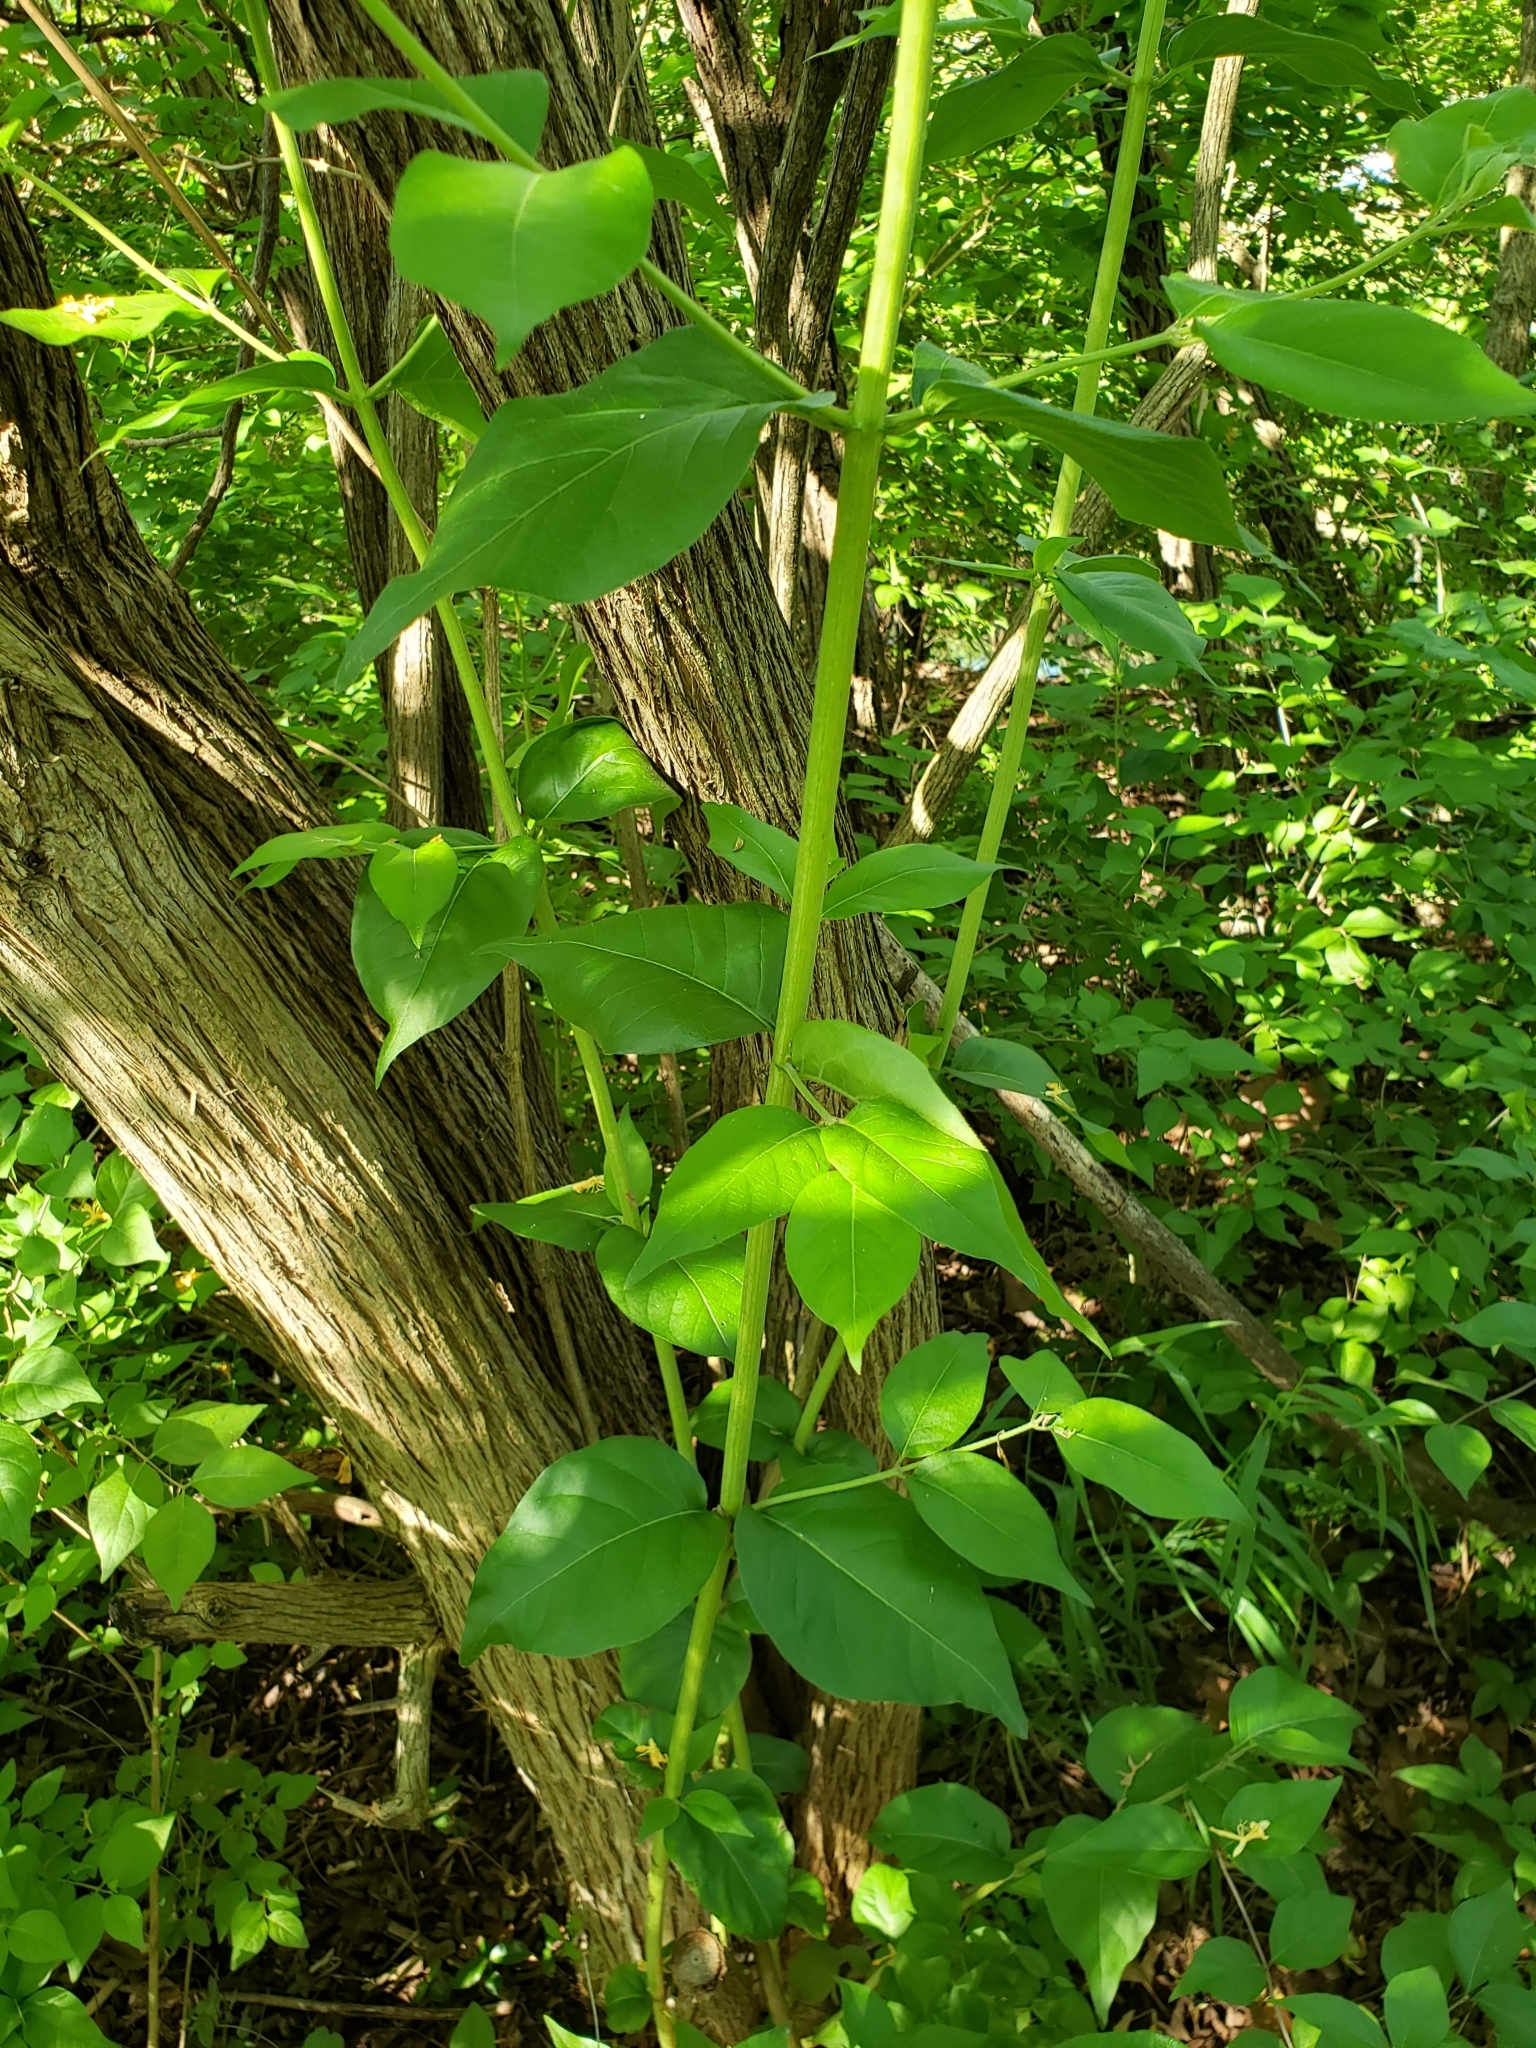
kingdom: Plantae
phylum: Tracheophyta
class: Magnoliopsida
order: Dipsacales
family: Caprifoliaceae
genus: Lonicera
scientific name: Lonicera maackii
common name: Amur honeysuckle
